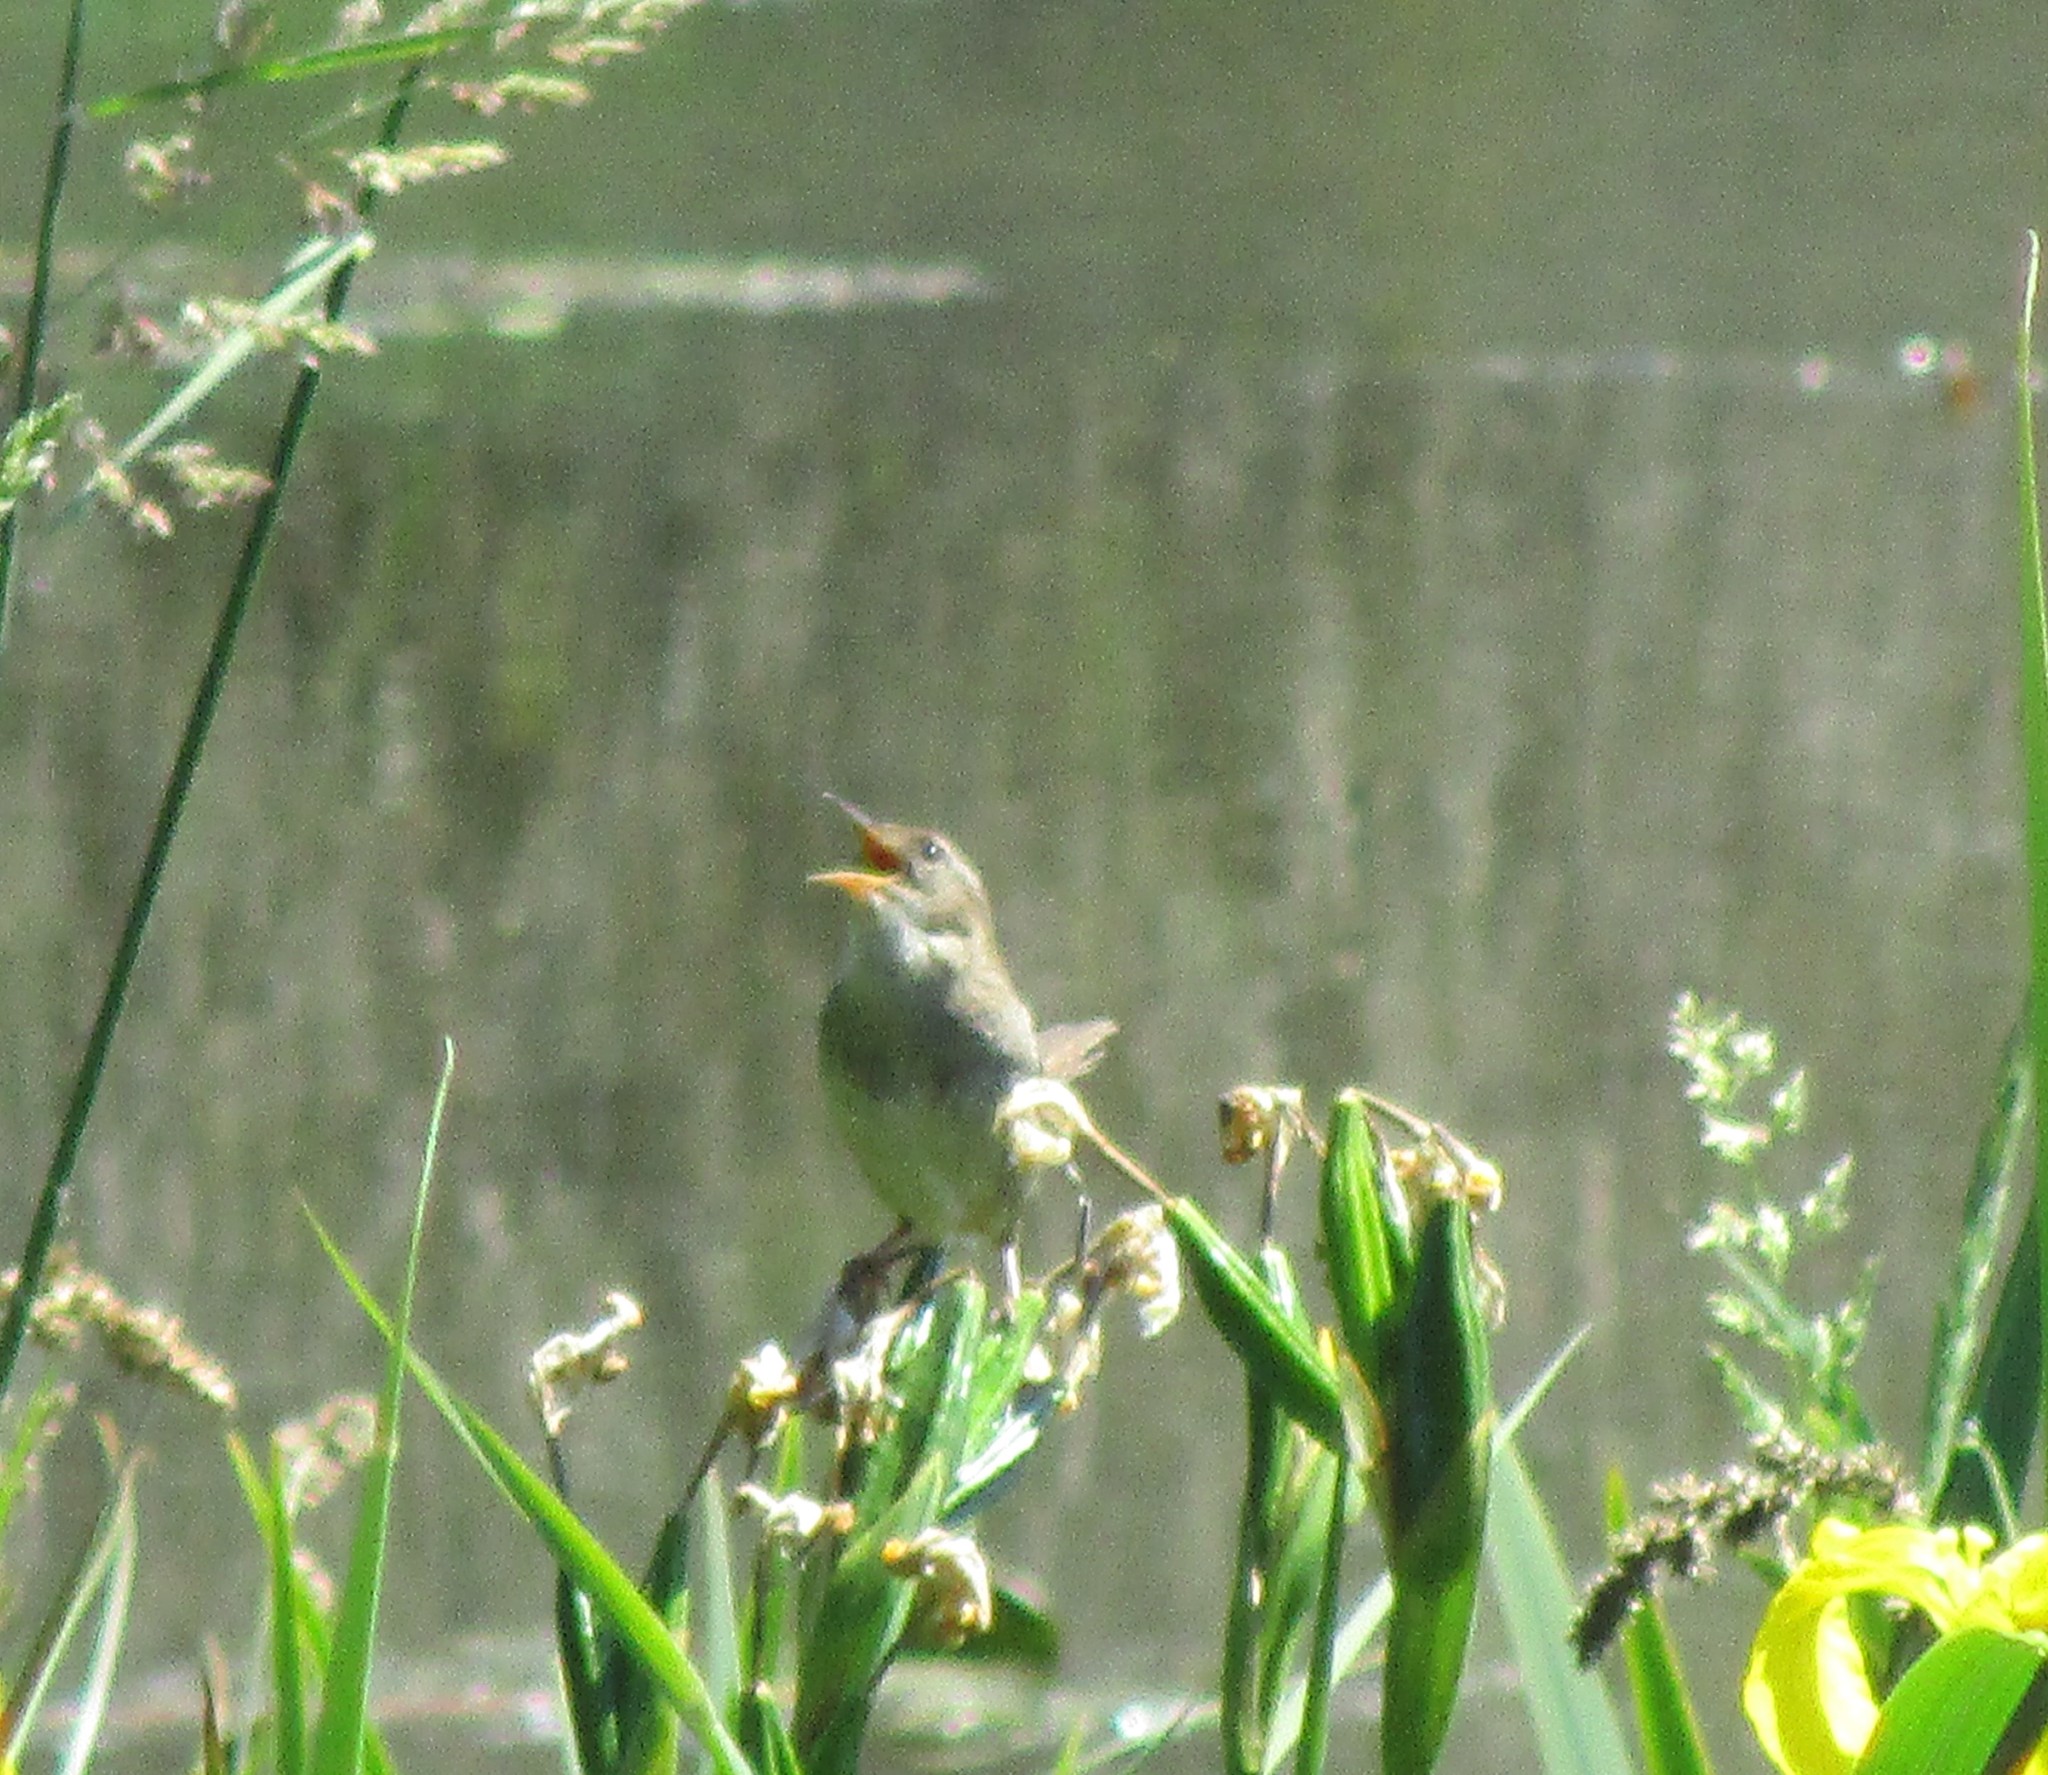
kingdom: Animalia
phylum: Chordata
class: Aves
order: Passeriformes
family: Troglodytidae
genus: Cistothorus
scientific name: Cistothorus palustris
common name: Marsh wren
